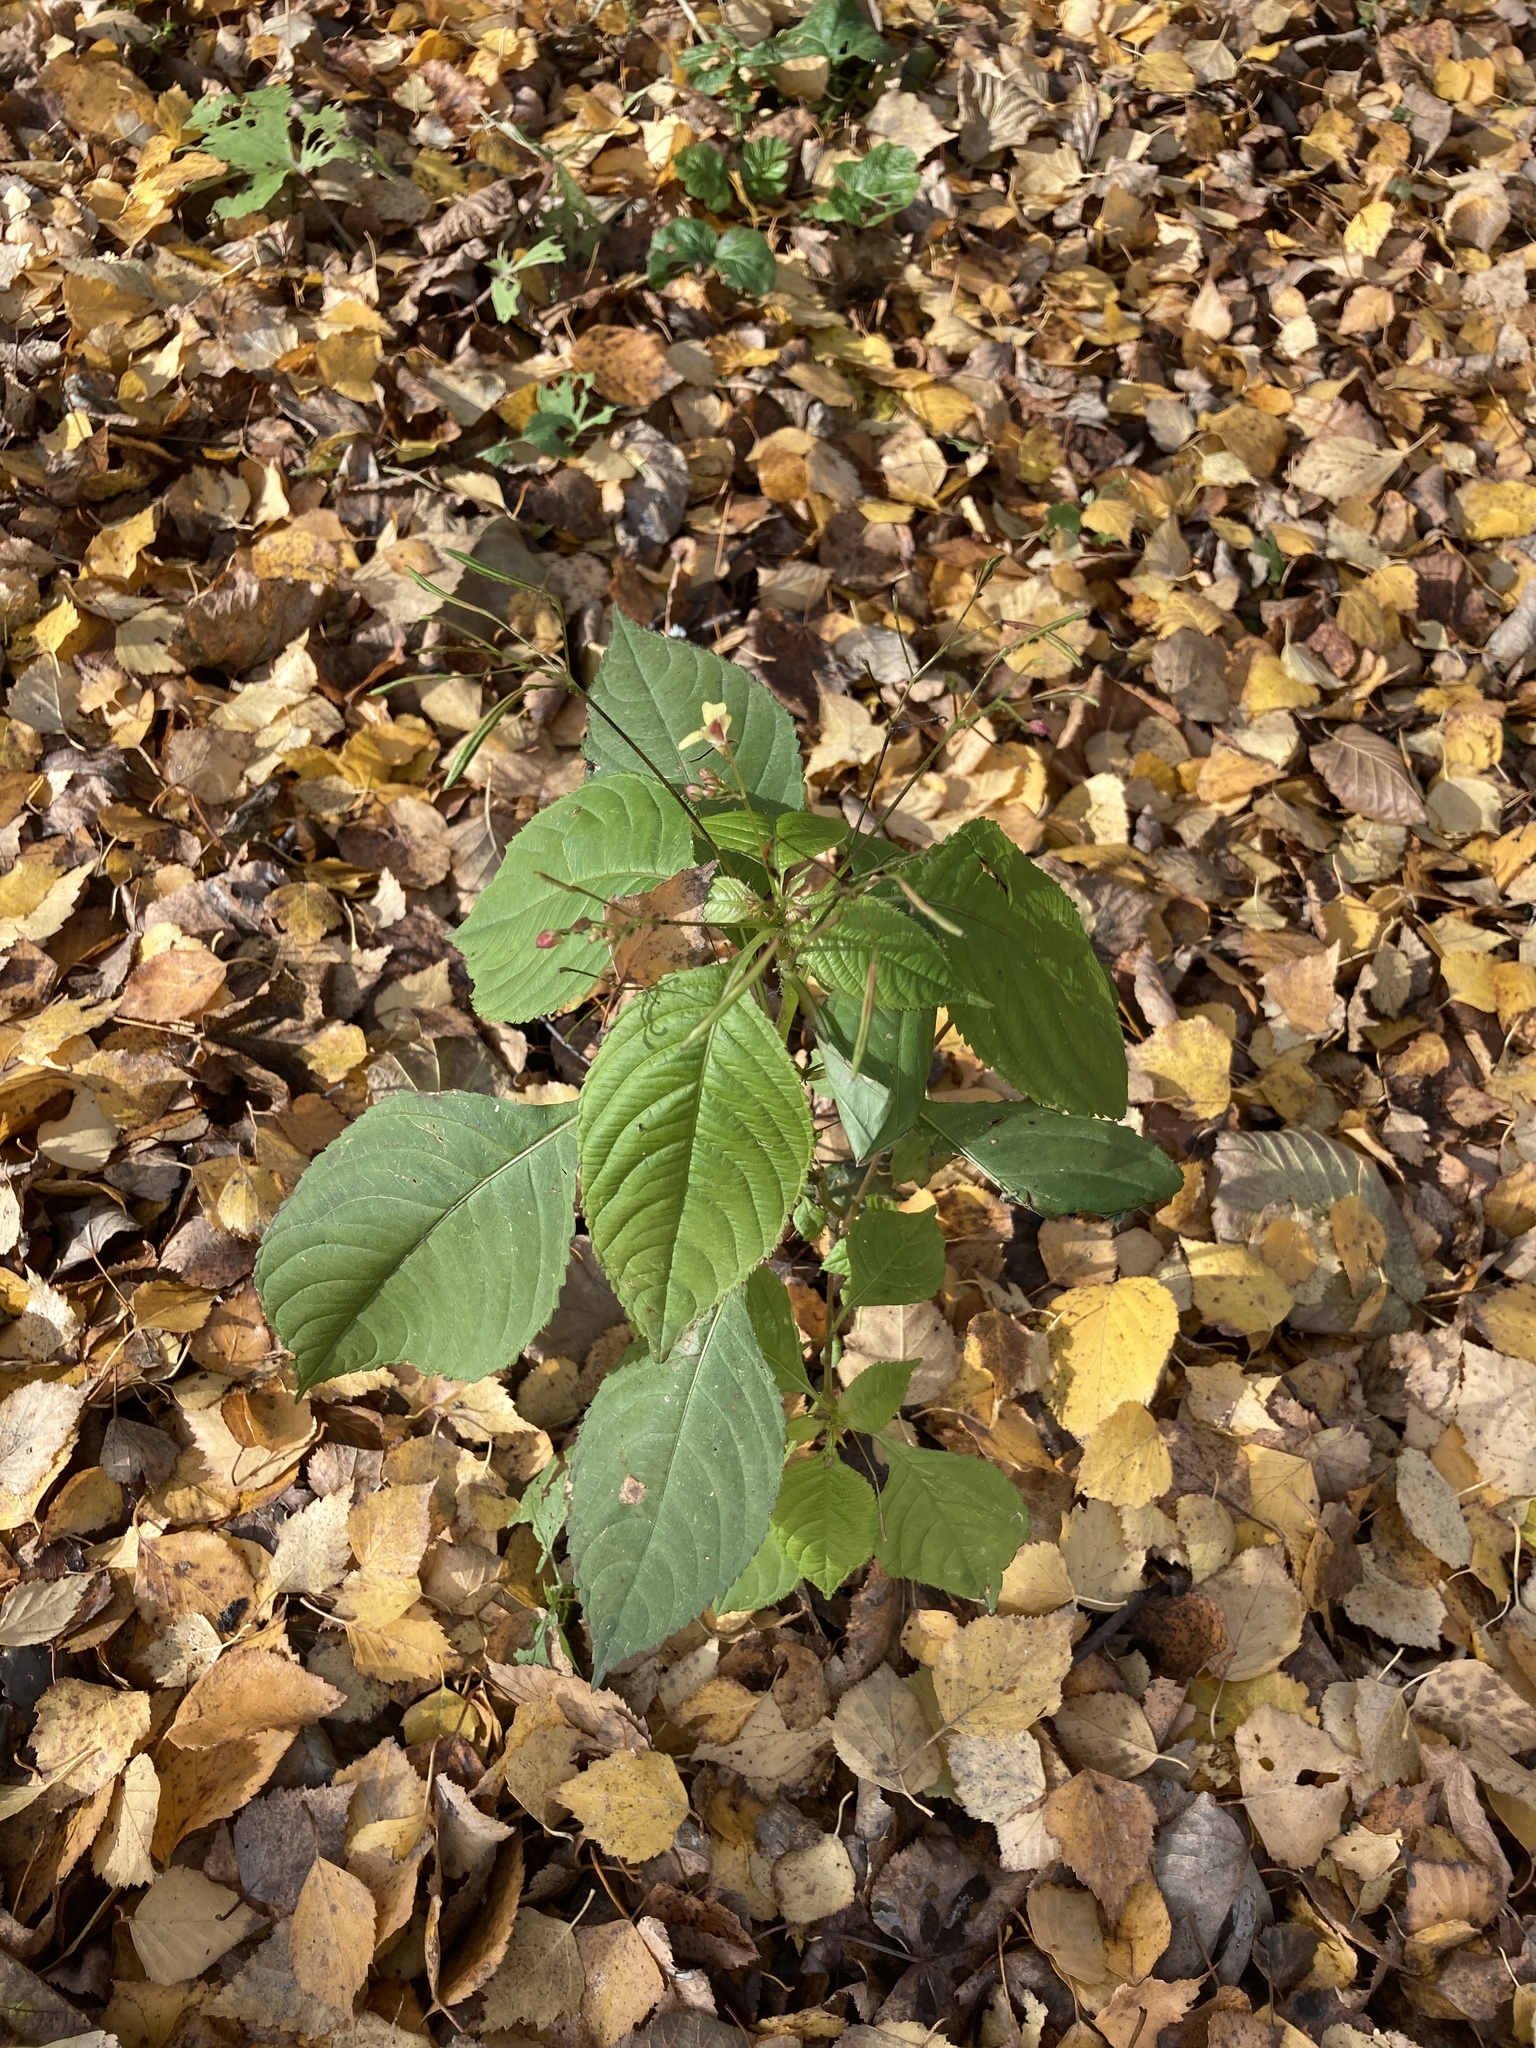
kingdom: Plantae
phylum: Tracheophyta
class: Magnoliopsida
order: Ericales
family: Balsaminaceae
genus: Impatiens
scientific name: Impatiens parviflora
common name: Small balsam
